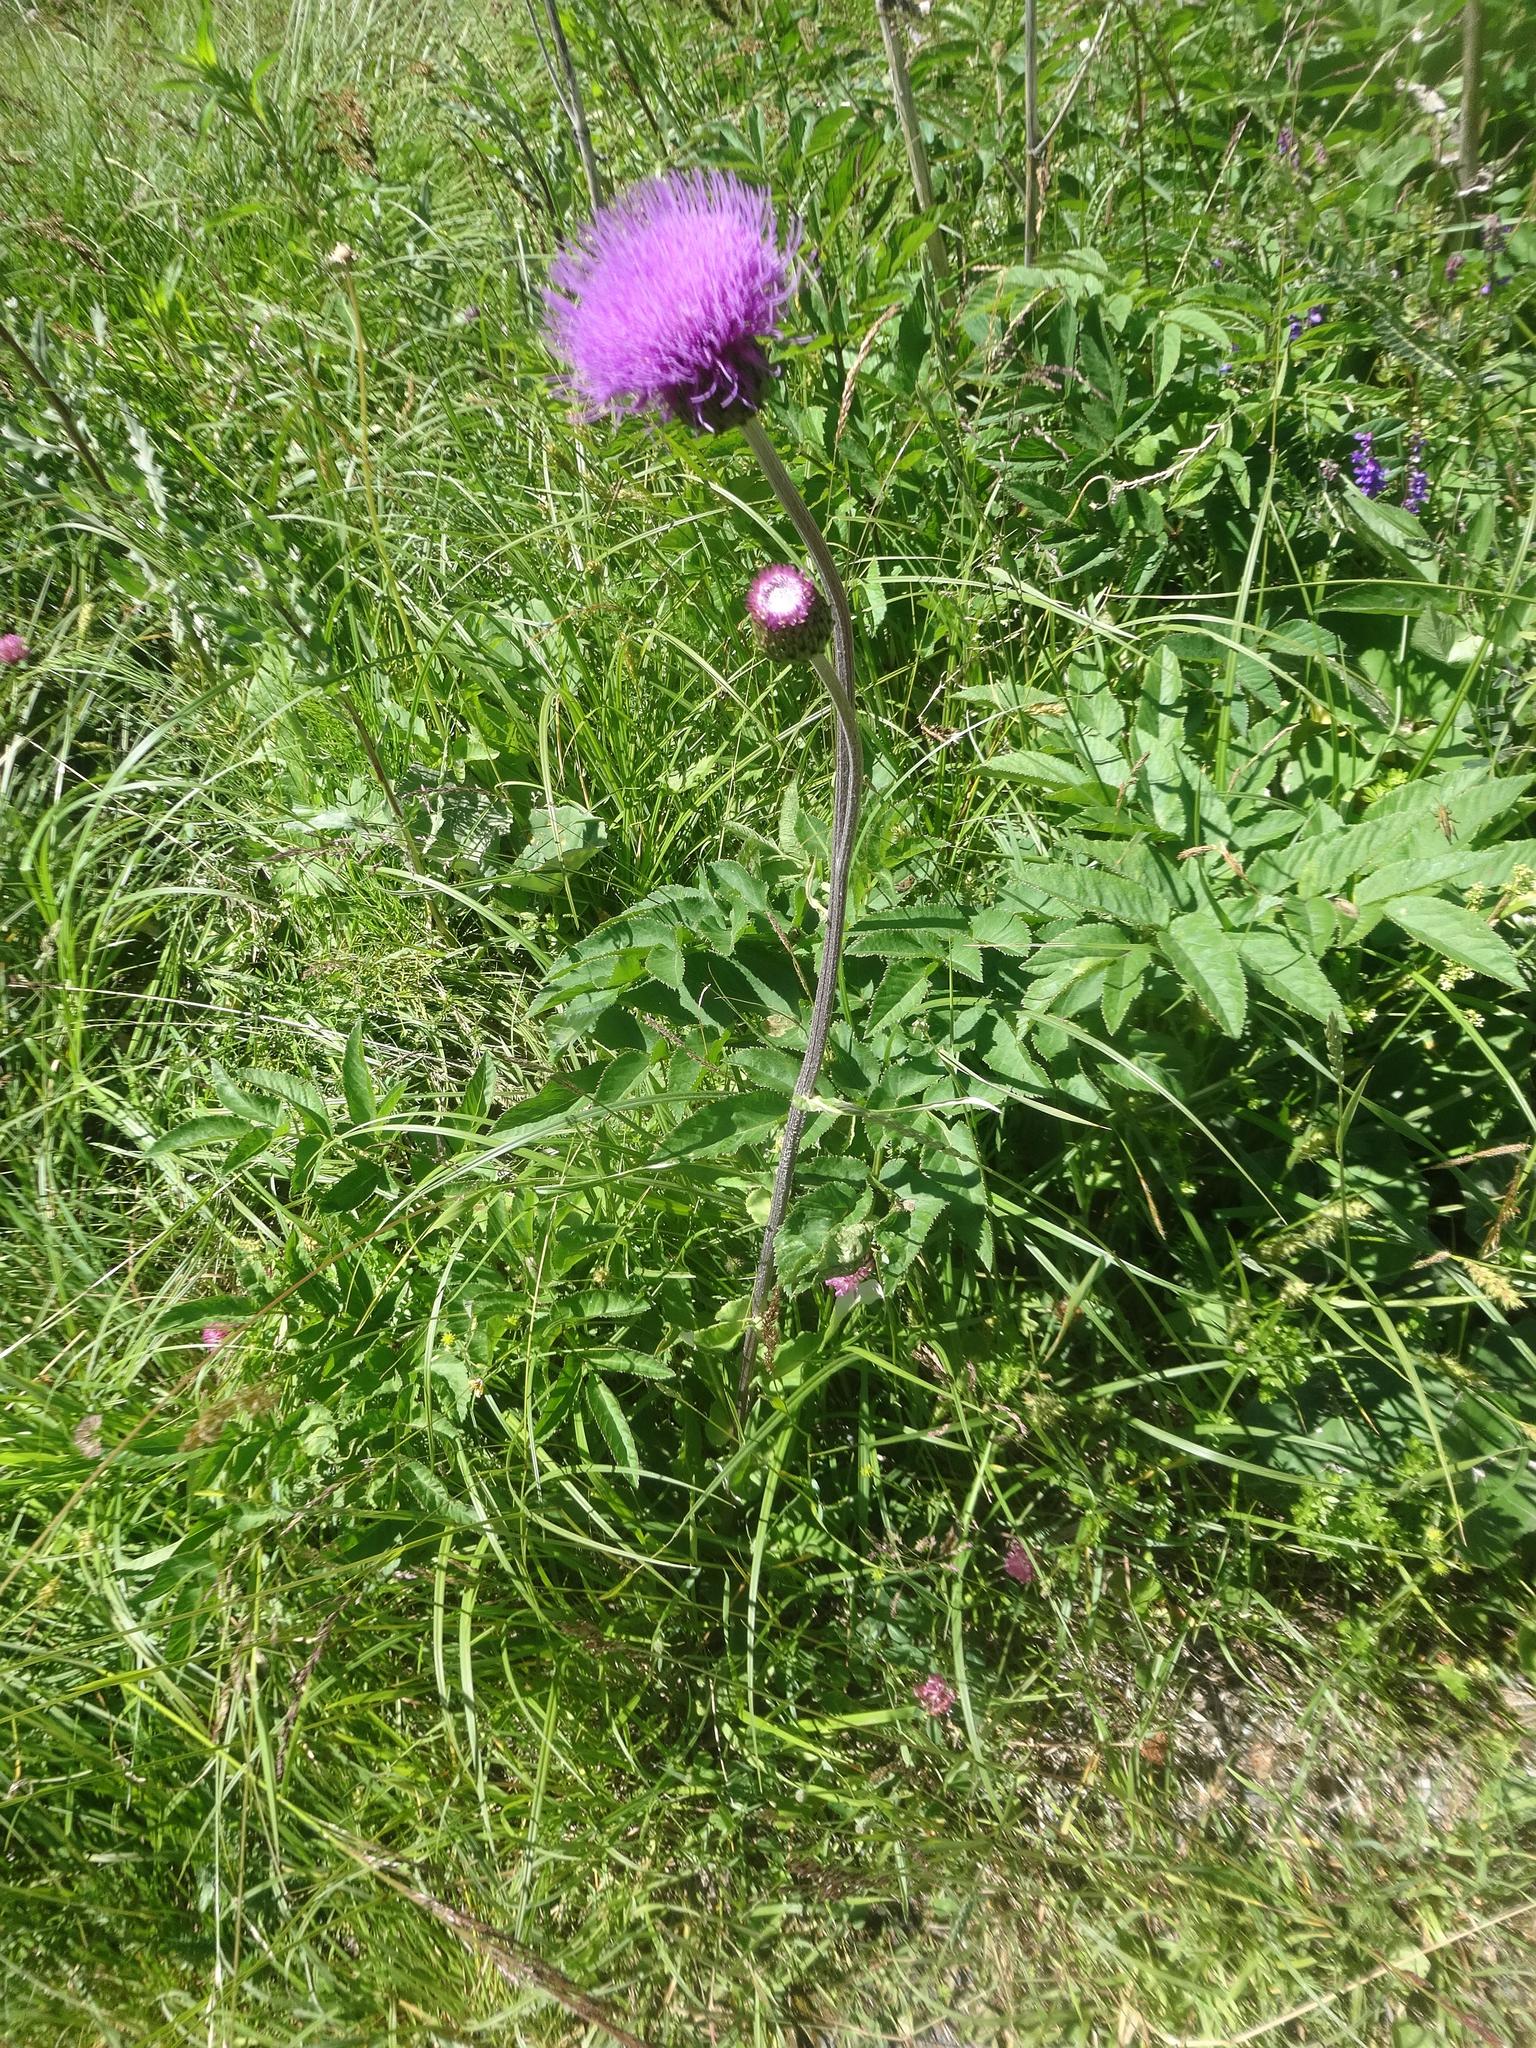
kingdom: Plantae
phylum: Tracheophyta
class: Magnoliopsida
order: Asterales
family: Asteraceae
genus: Cirsium
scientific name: Cirsium heterophyllum
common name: Melancholy thistle
